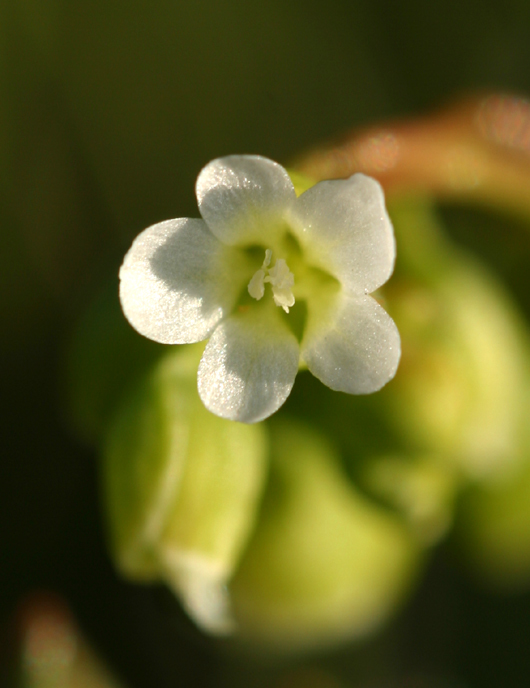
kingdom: Plantae
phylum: Tracheophyta
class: Magnoliopsida
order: Caryophyllales
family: Montiaceae
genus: Montia
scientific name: Montia linearis
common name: Narrow-leaf montia
